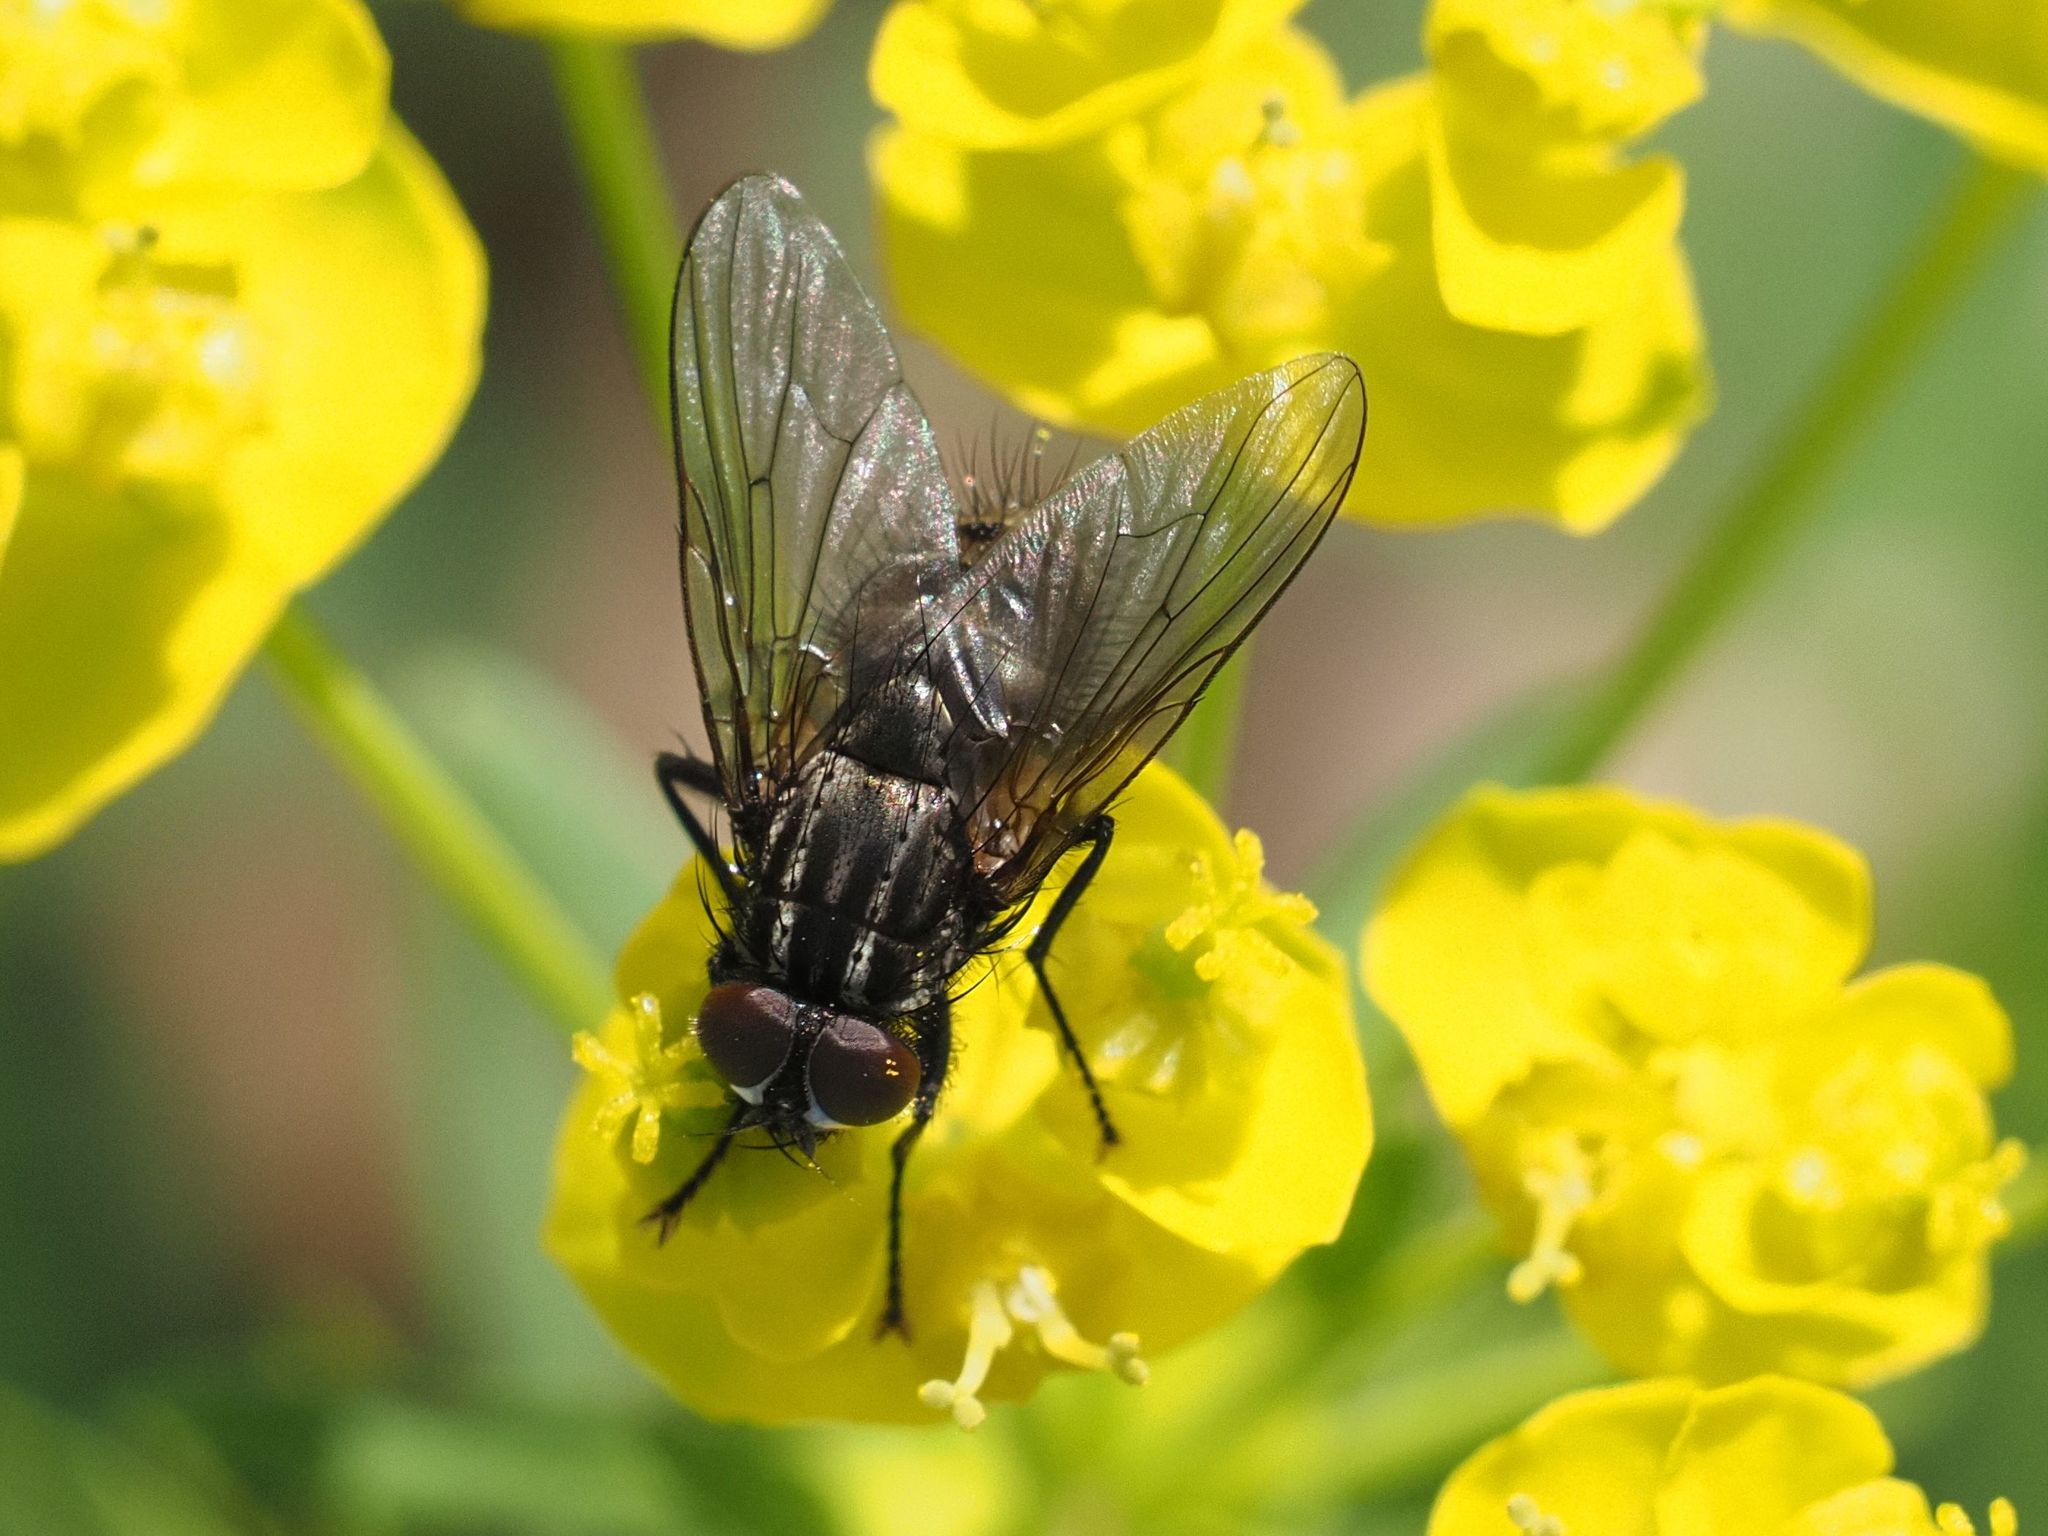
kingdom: Animalia
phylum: Arthropoda
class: Insecta
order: Diptera
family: Muscidae
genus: Myospila
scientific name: Myospila meditabunda
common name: Muscoid fly
